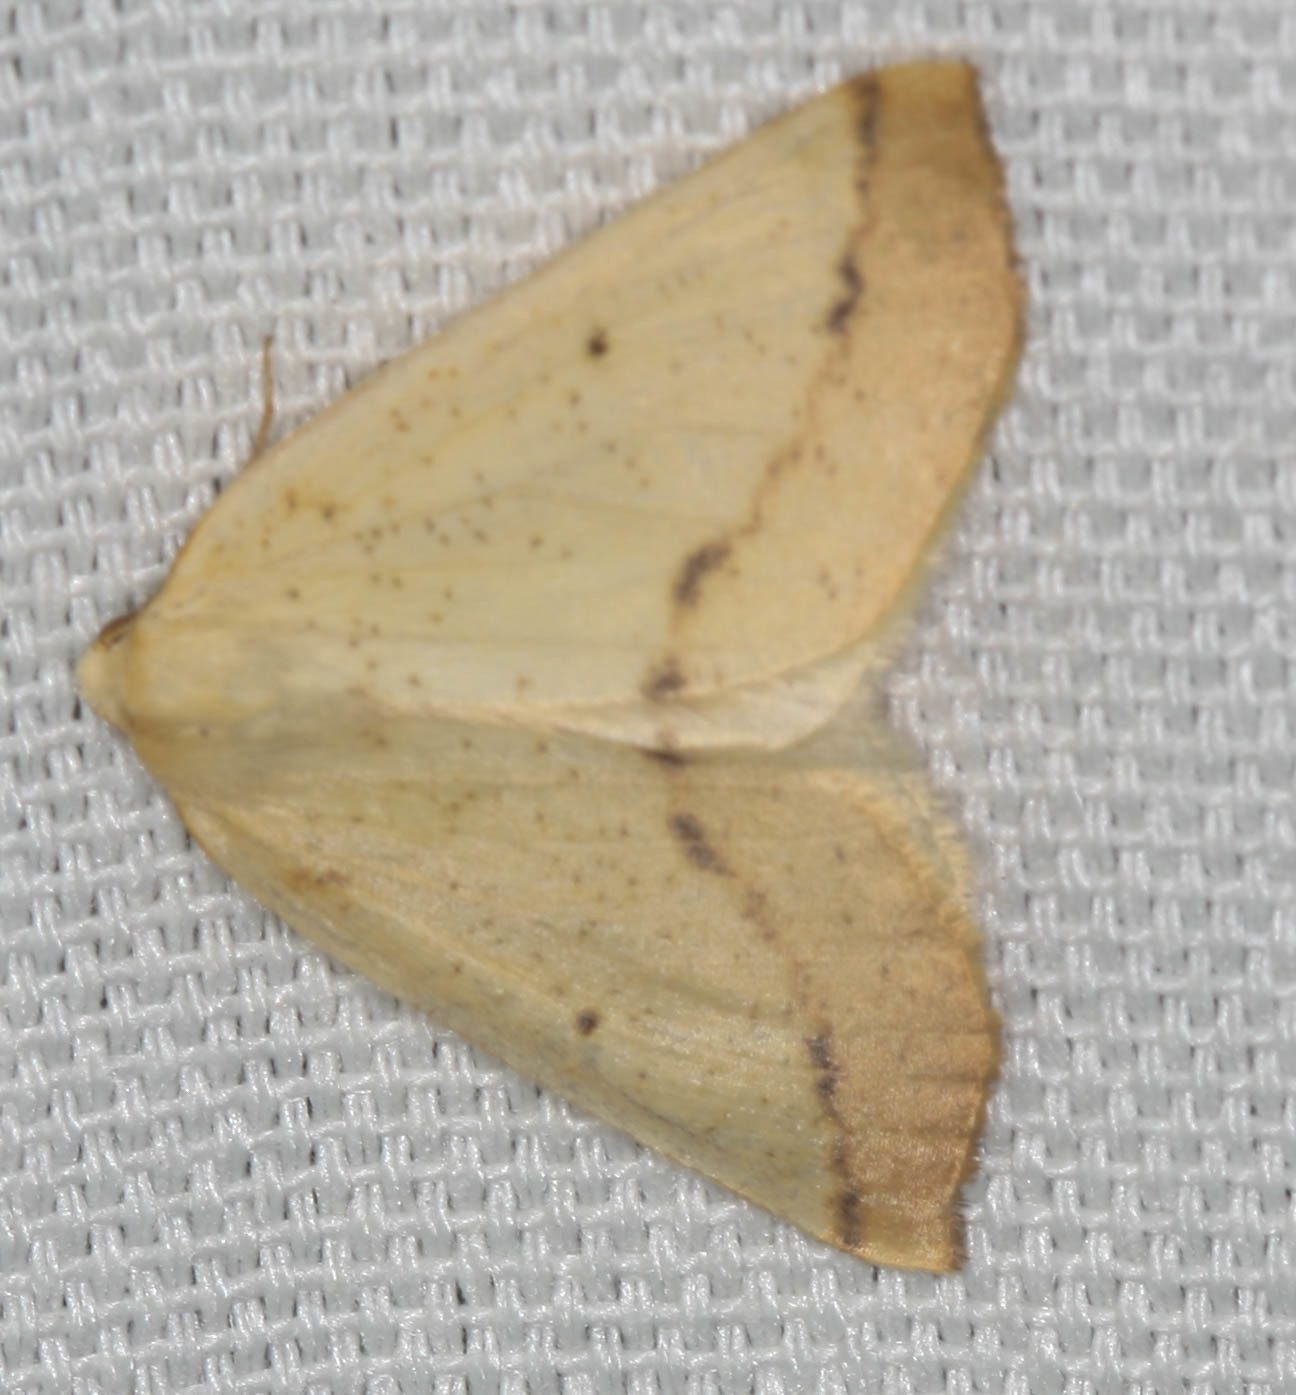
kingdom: Animalia
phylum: Arthropoda
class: Insecta
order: Lepidoptera
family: Geometridae
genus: Neoterpes
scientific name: Neoterpes edwardsata
